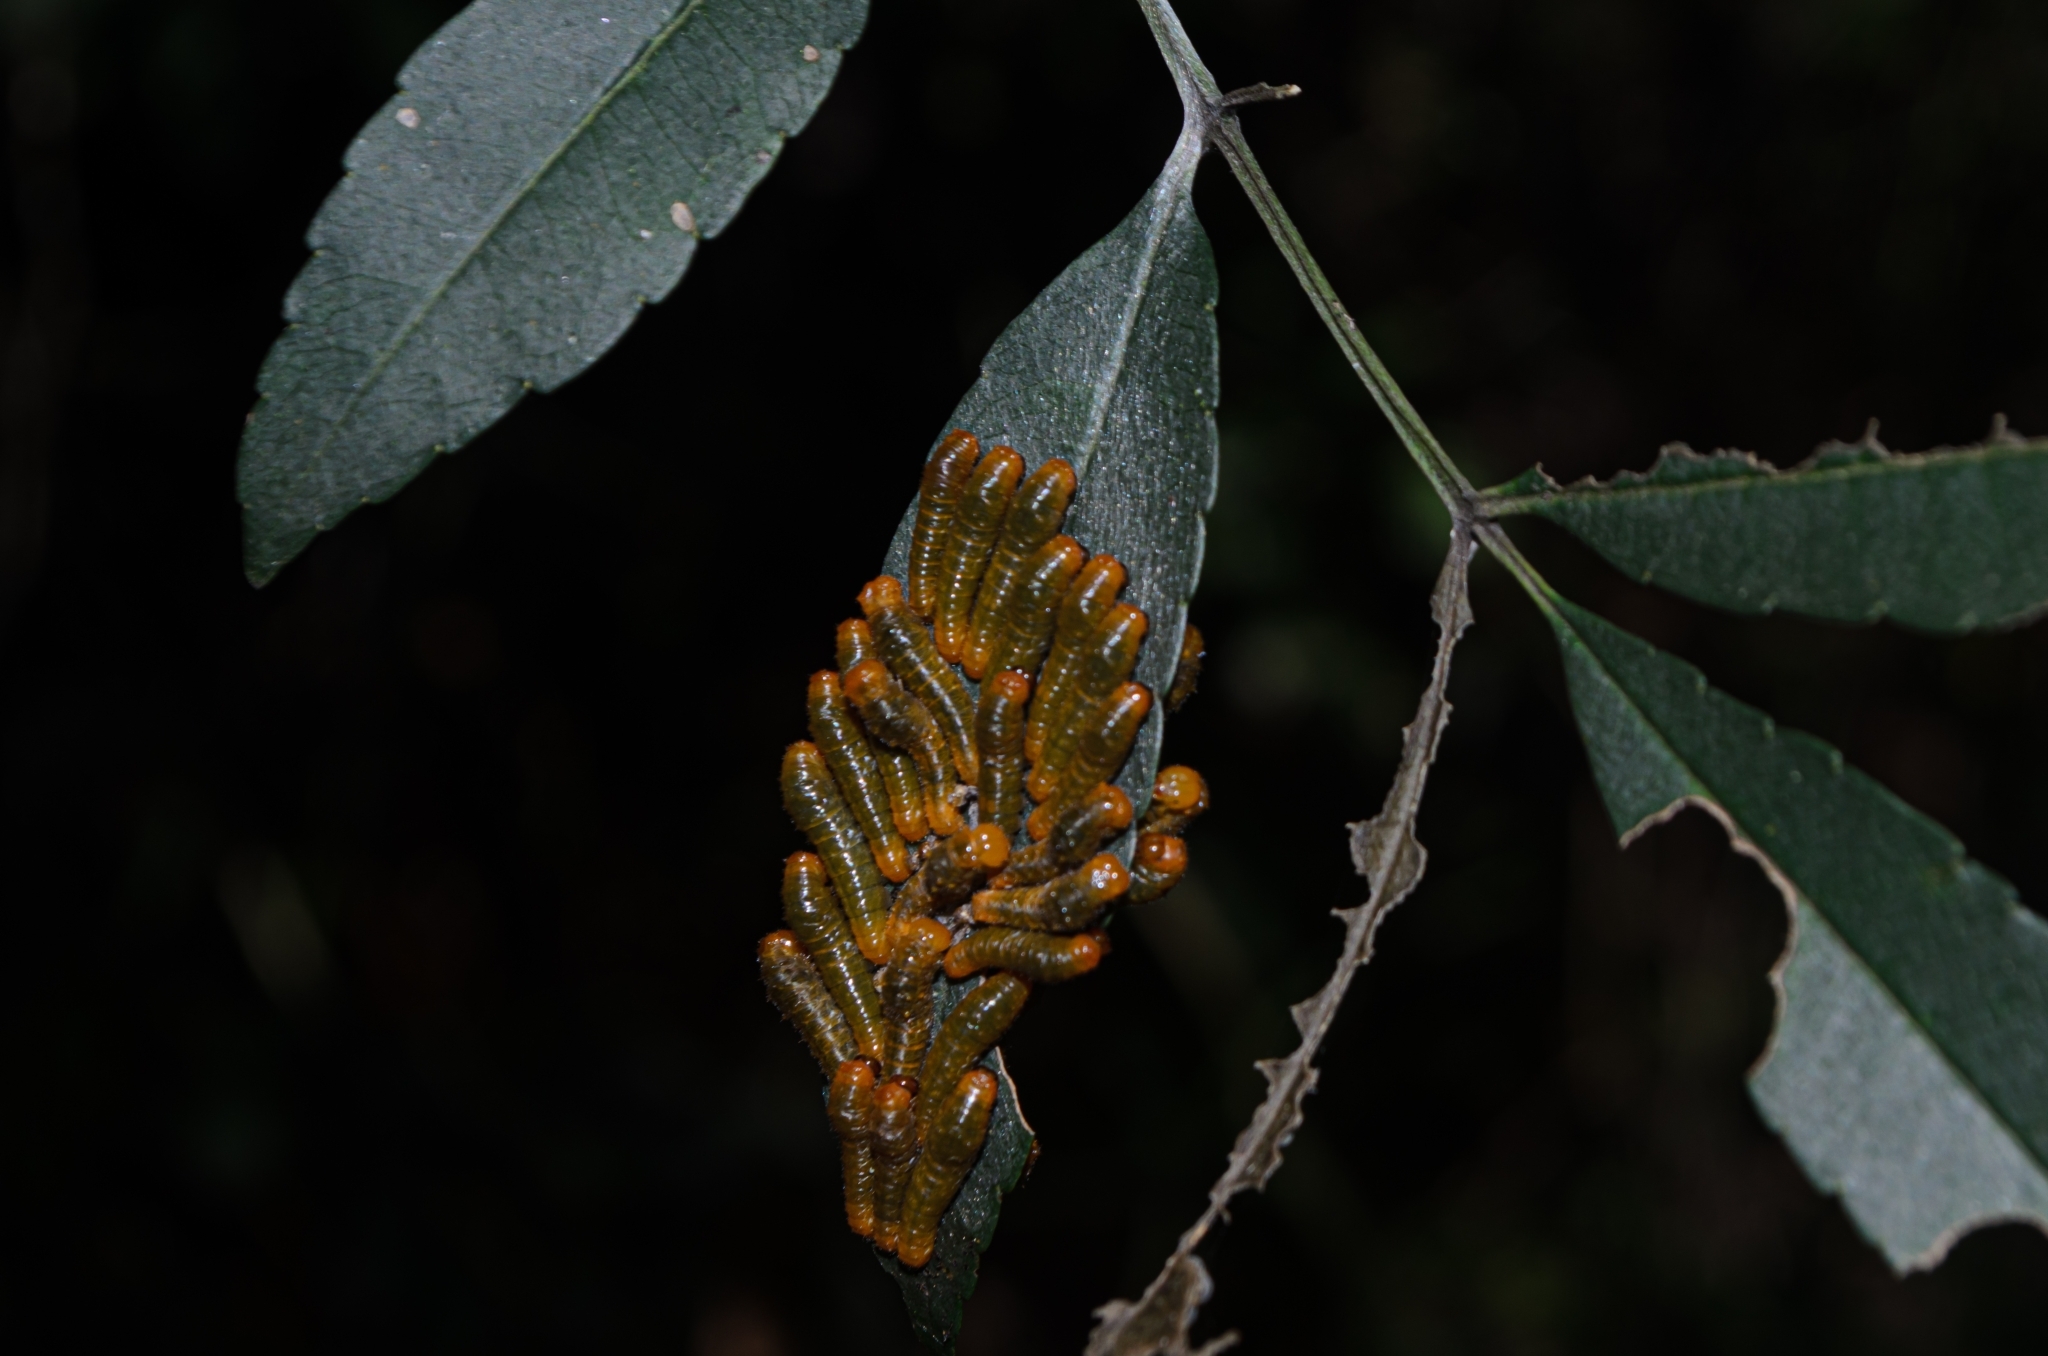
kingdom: Animalia
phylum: Arthropoda
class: Insecta
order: Lepidoptera
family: Papilionidae
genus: Papilio
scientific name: Papilio anchisiades
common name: Idaes swallowtail
